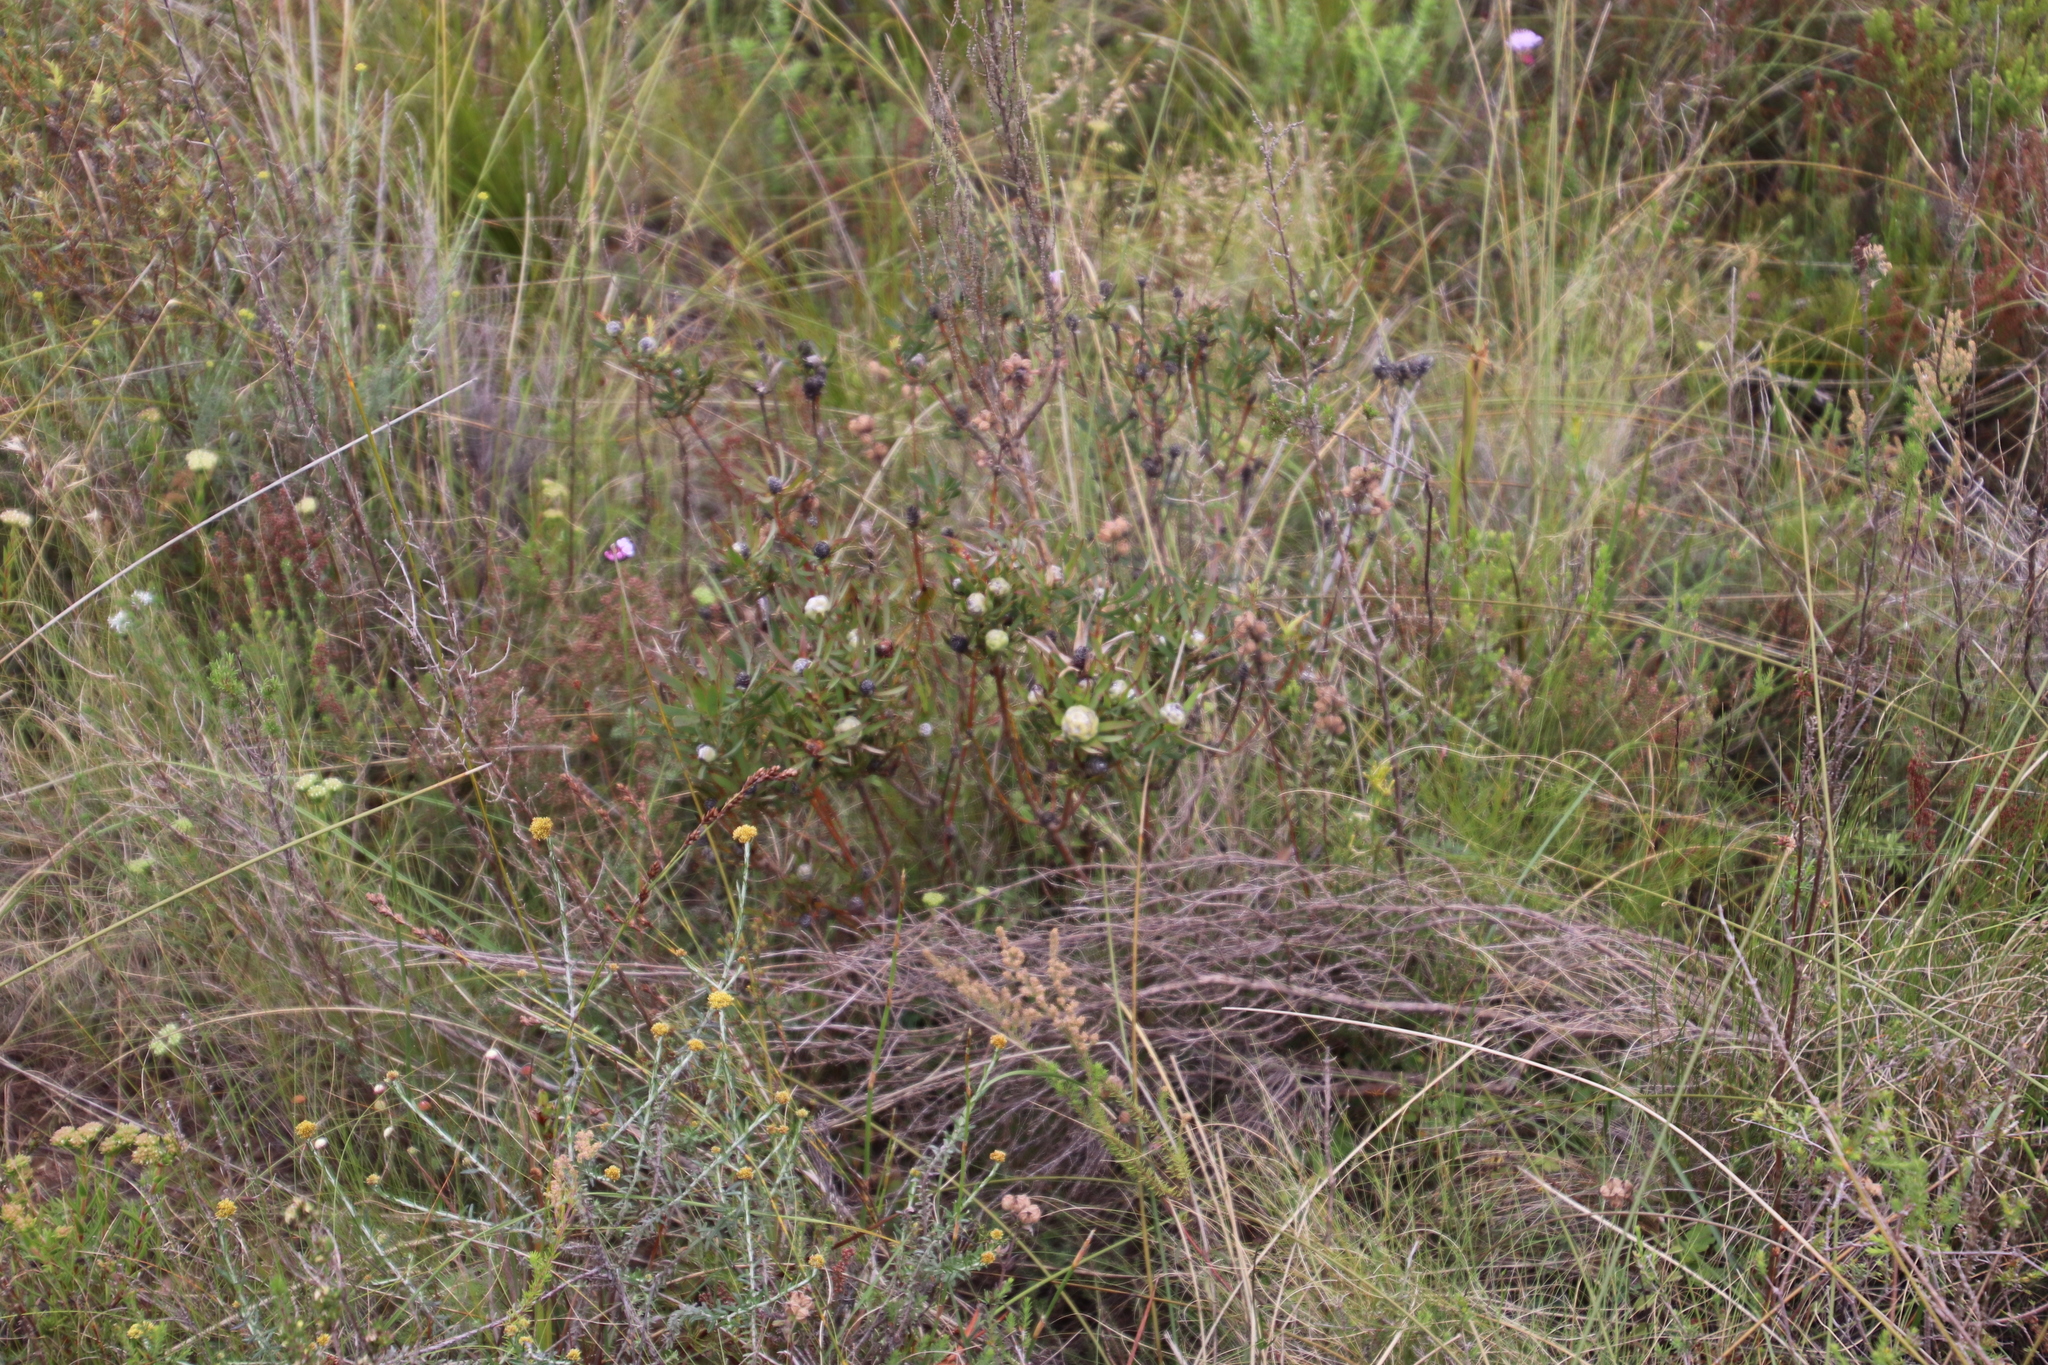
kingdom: Plantae
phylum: Tracheophyta
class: Magnoliopsida
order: Proteales
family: Proteaceae
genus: Leucadendron
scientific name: Leucadendron salignum
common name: Common sunshine conebush
